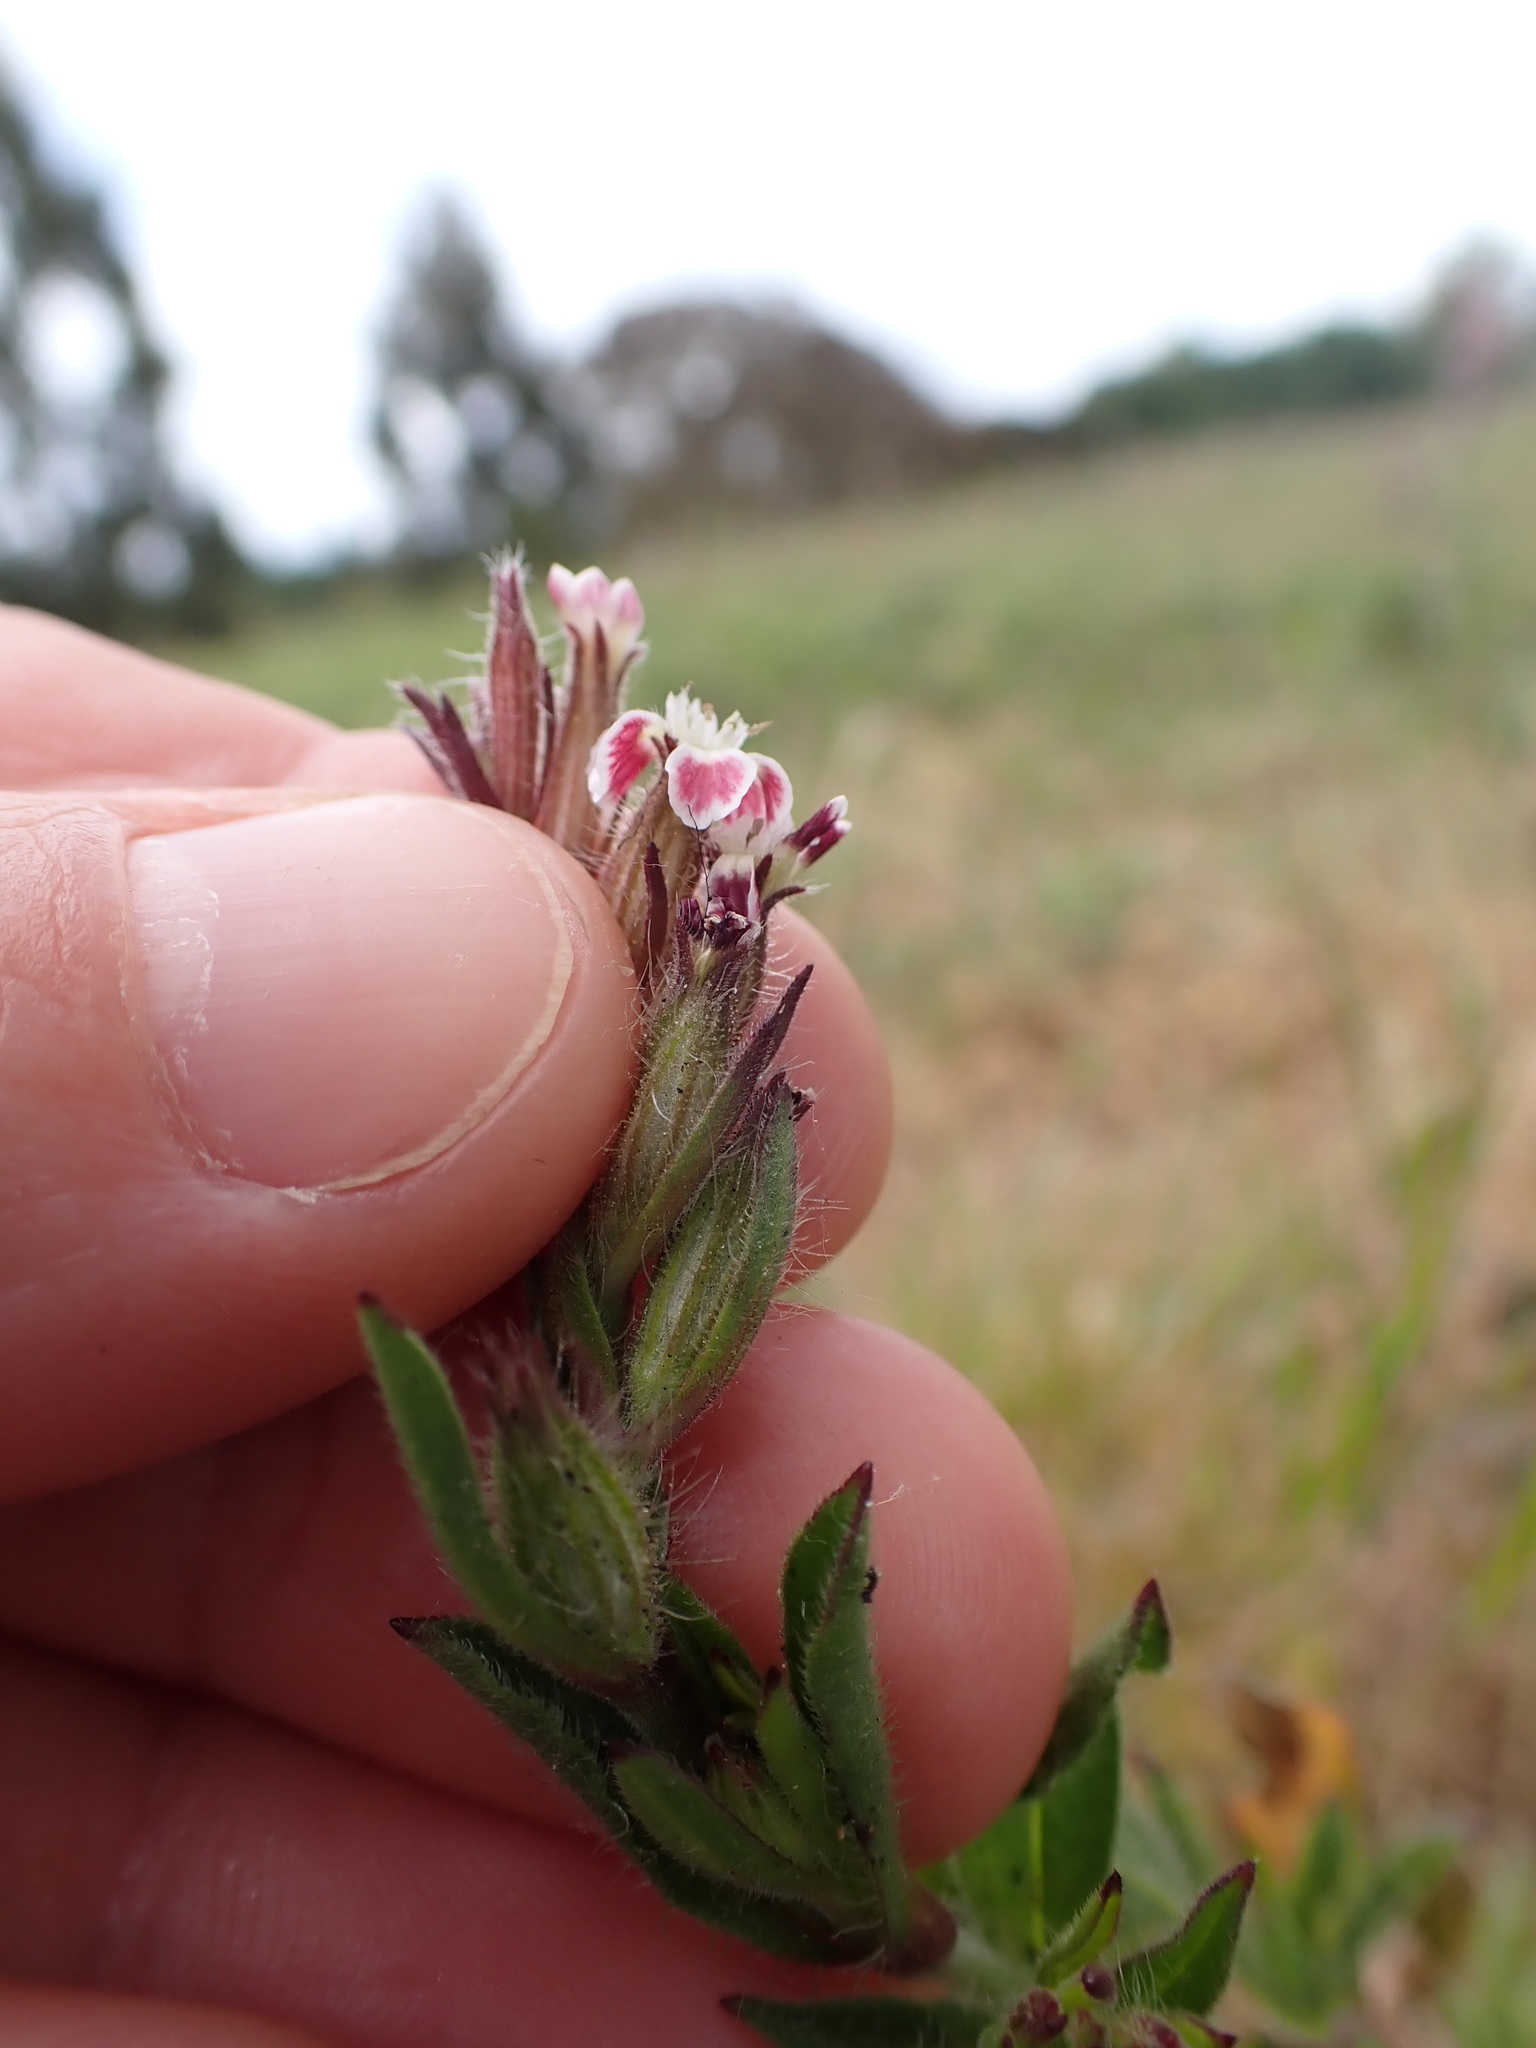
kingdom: Plantae
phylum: Tracheophyta
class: Magnoliopsida
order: Caryophyllales
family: Caryophyllaceae
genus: Silene
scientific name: Silene gallica
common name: Small-flowered catchfly
